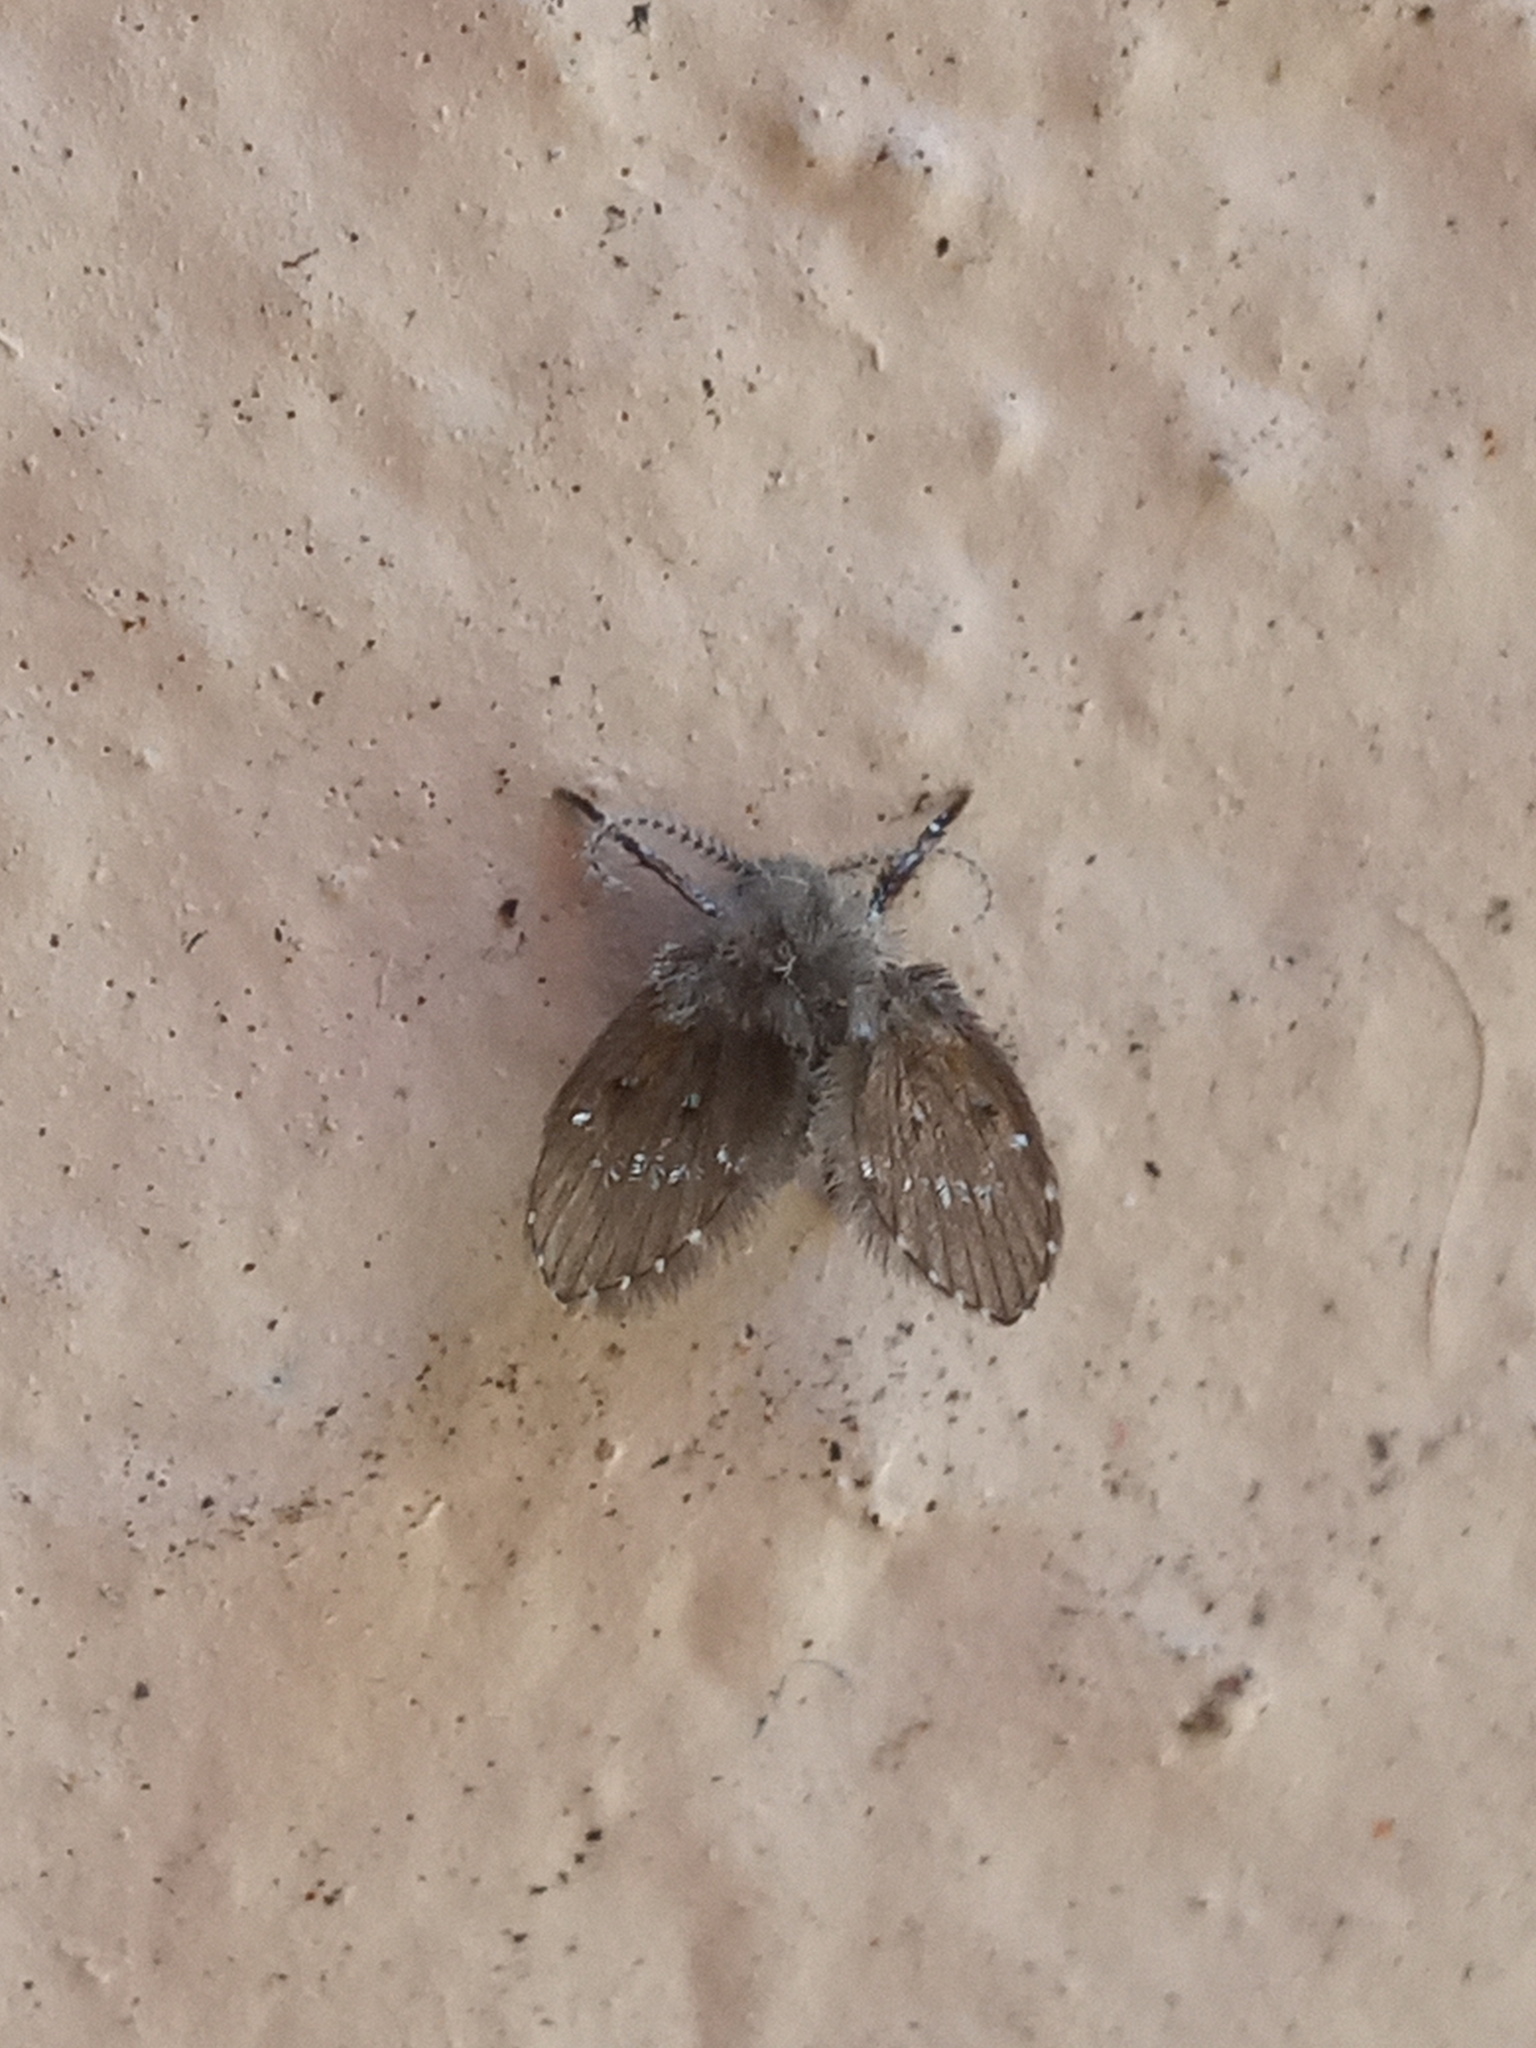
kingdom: Animalia
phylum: Arthropoda
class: Insecta
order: Diptera
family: Psychodidae
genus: Clogmia
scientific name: Clogmia albipunctatus
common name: White-spotted moth fly
